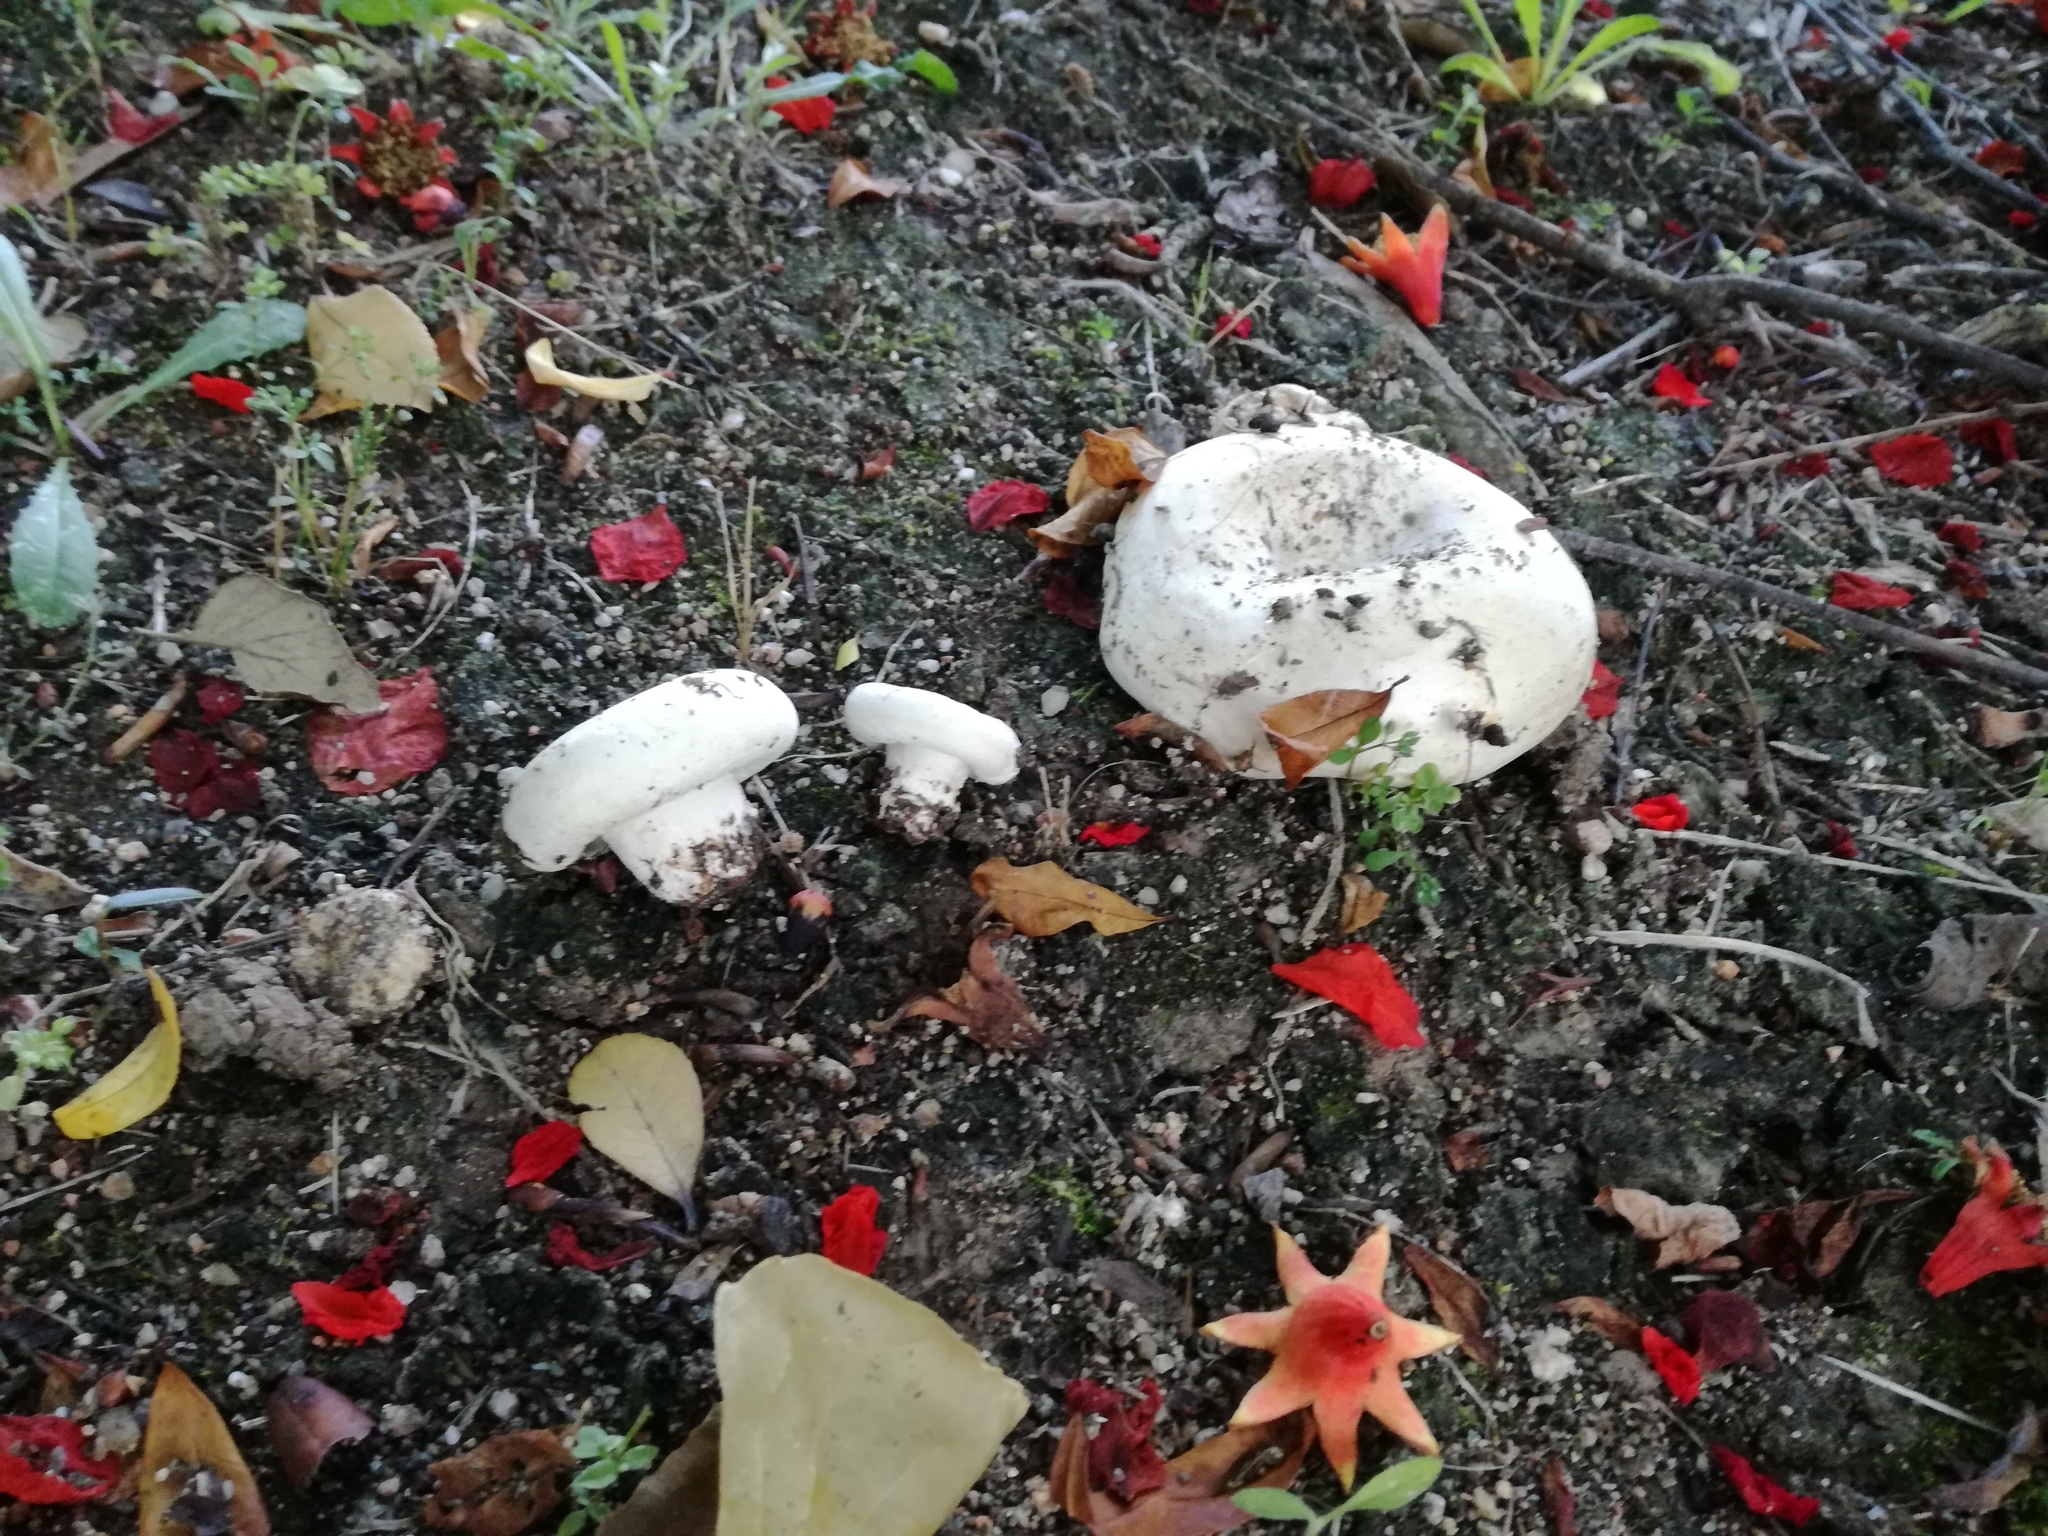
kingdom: Fungi
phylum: Basidiomycota
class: Agaricomycetes
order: Russulales
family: Russulaceae
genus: Lactarius
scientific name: Lactarius controversus
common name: Blushing milkcap
